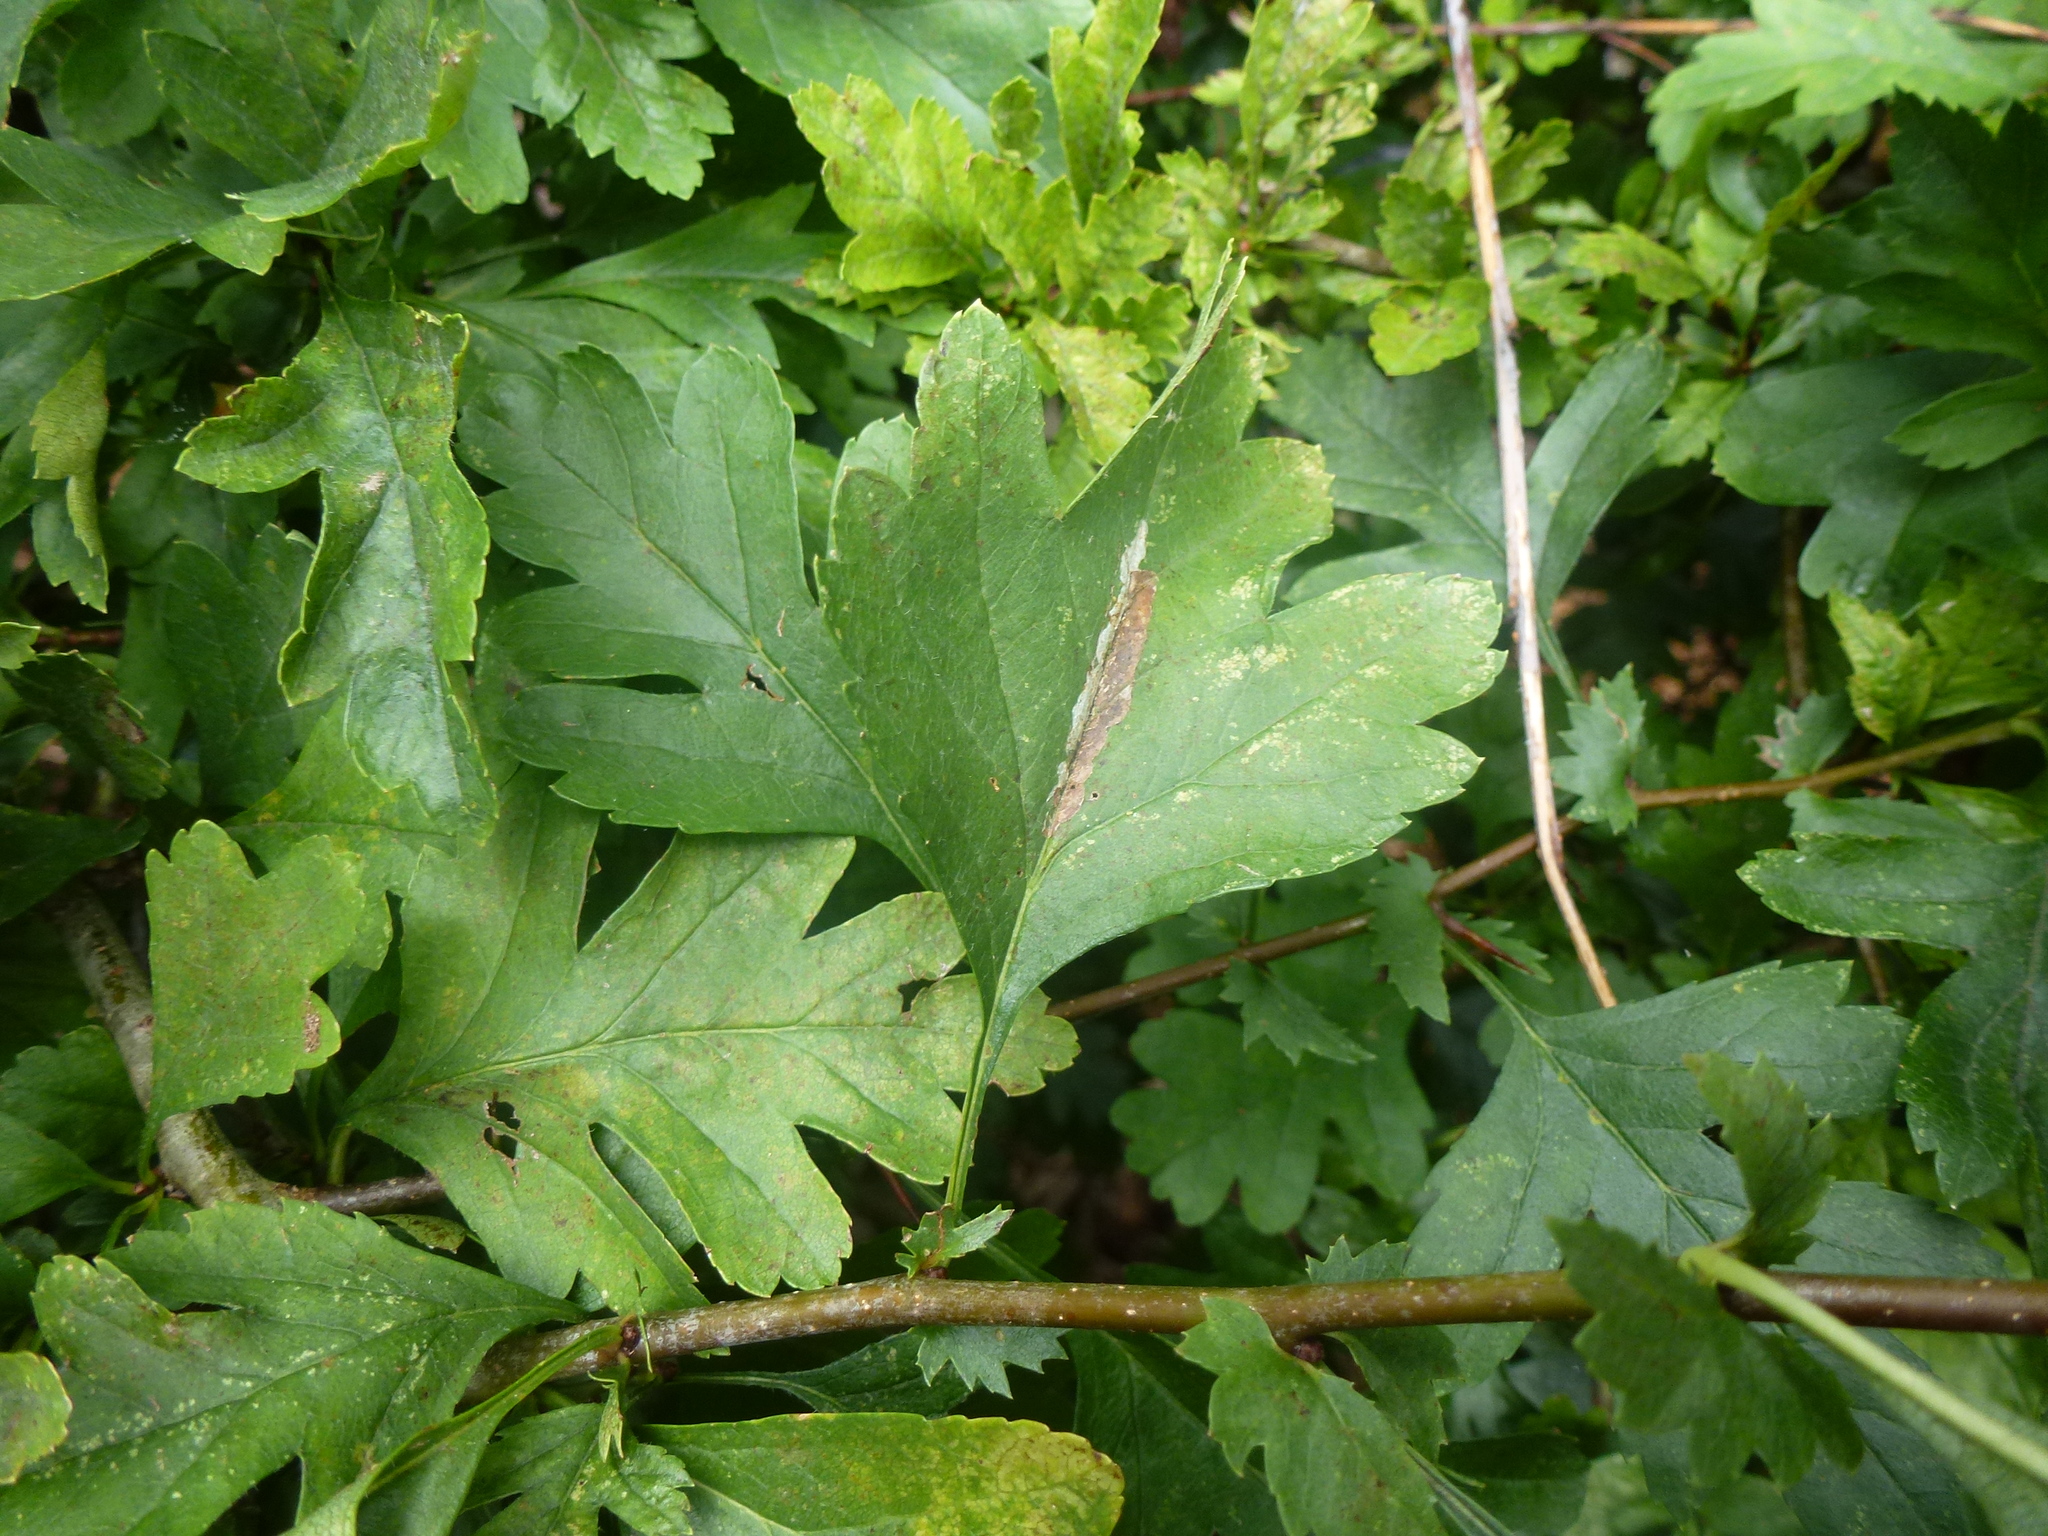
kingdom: Animalia
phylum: Arthropoda
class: Insecta
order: Lepidoptera
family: Gracillariidae
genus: Phyllonorycter
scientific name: Phyllonorycter leucographella
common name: Firethorn leaf-miner
